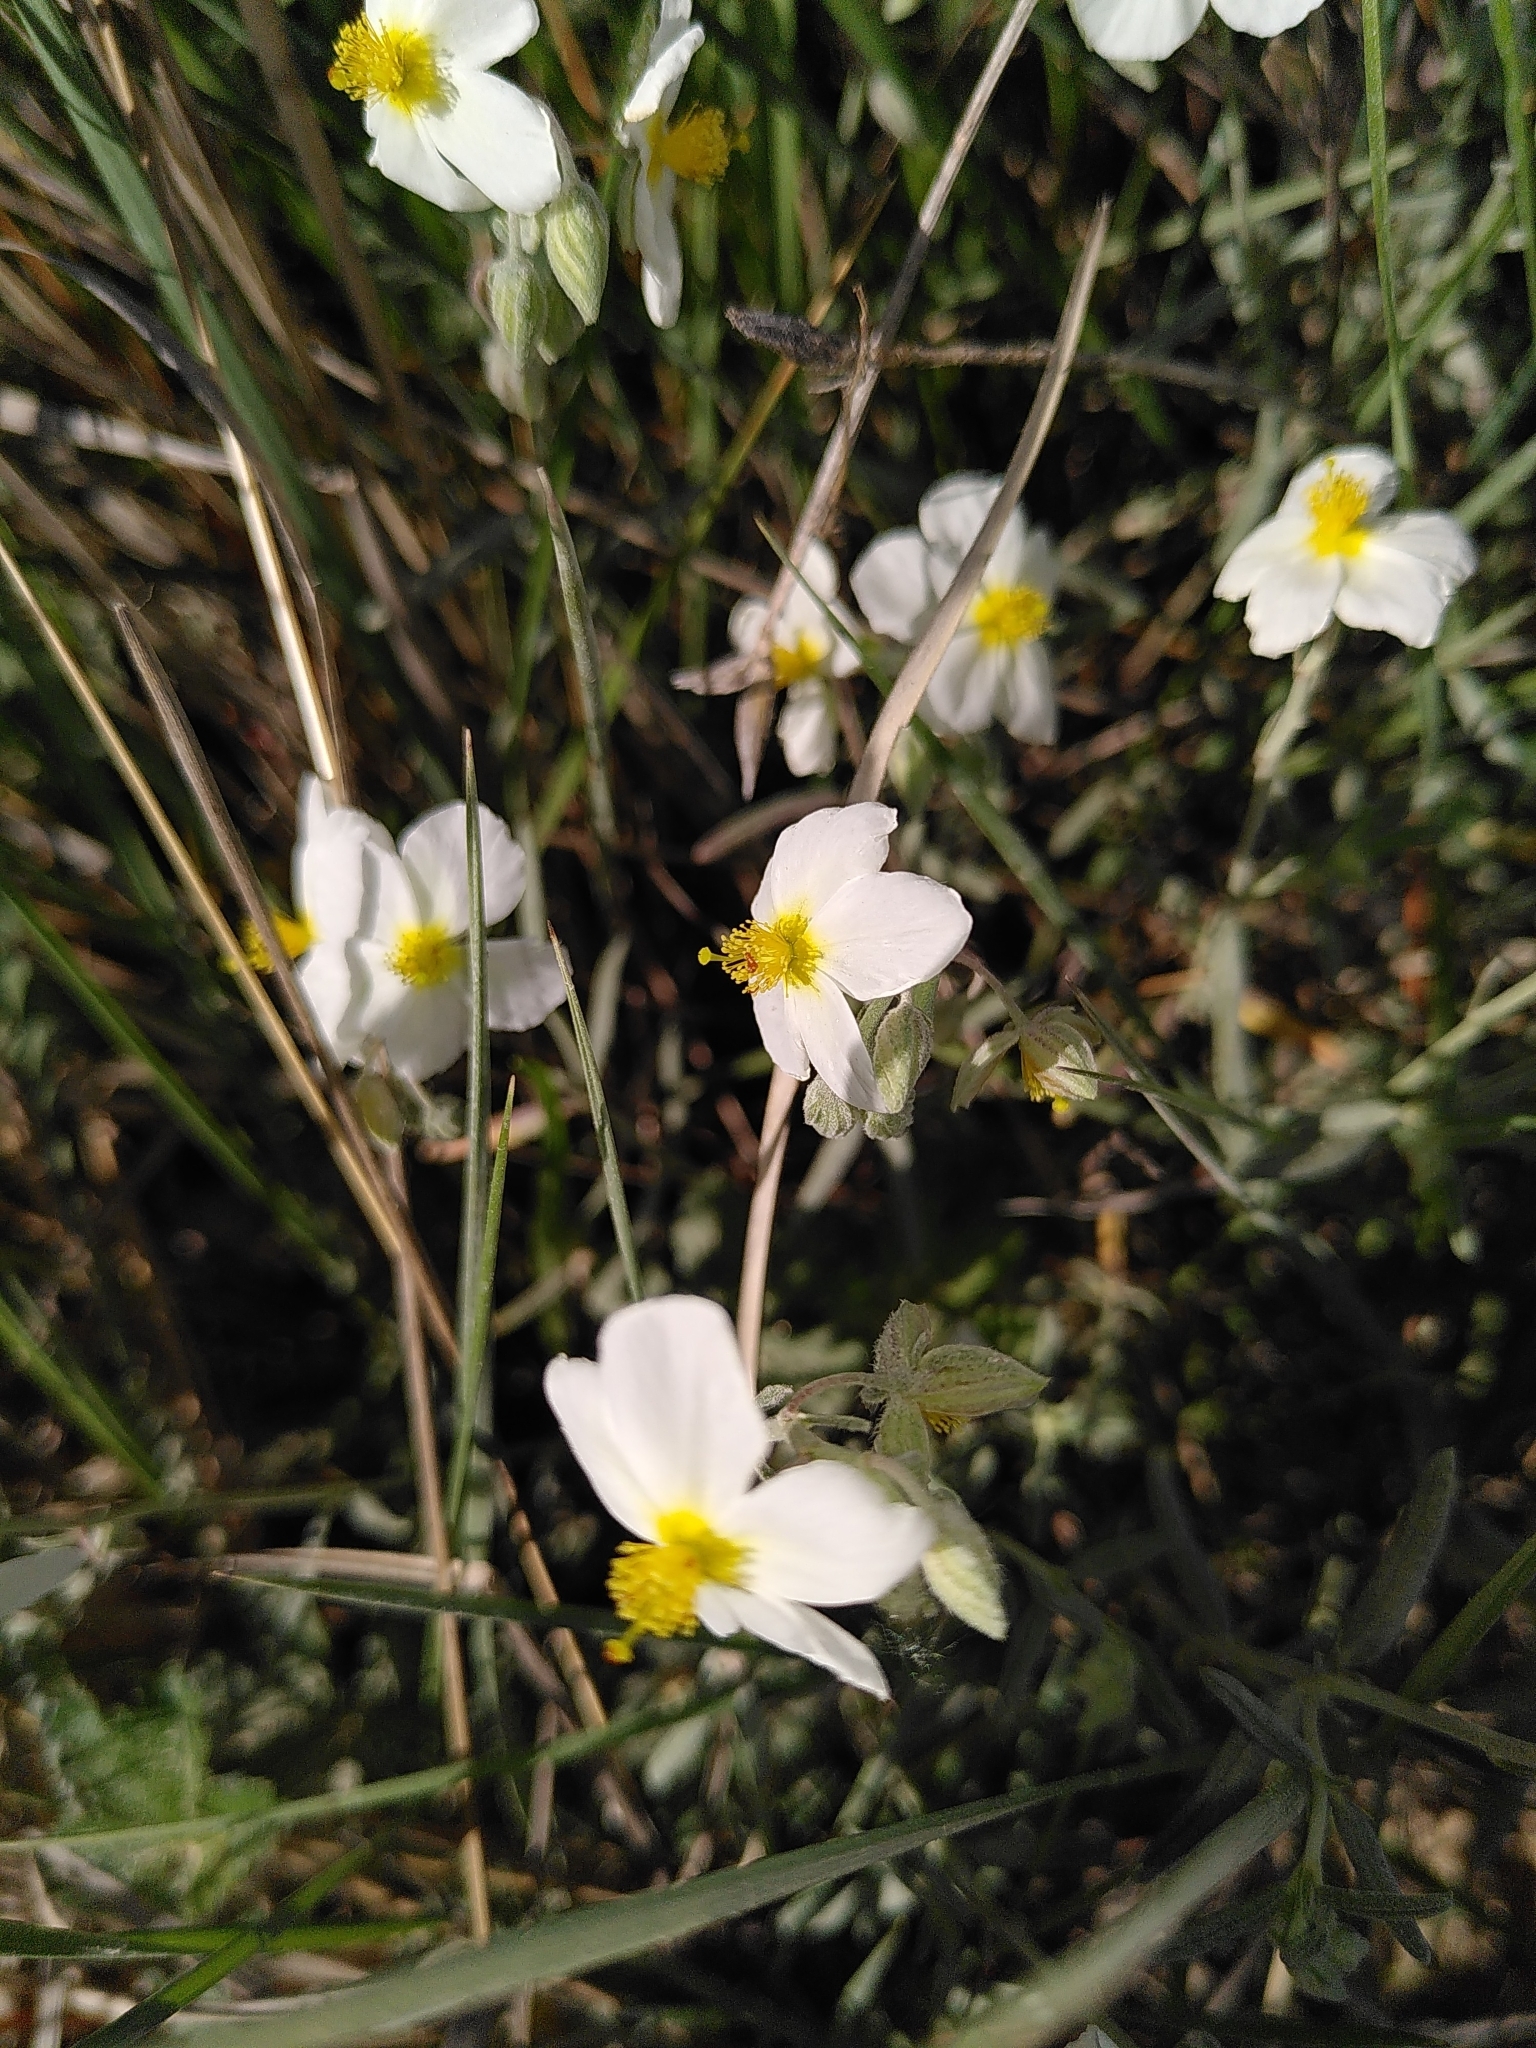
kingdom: Plantae
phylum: Tracheophyta
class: Magnoliopsida
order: Malvales
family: Cistaceae
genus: Helianthemum
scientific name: Helianthemum apenninum
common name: White rock-rose
